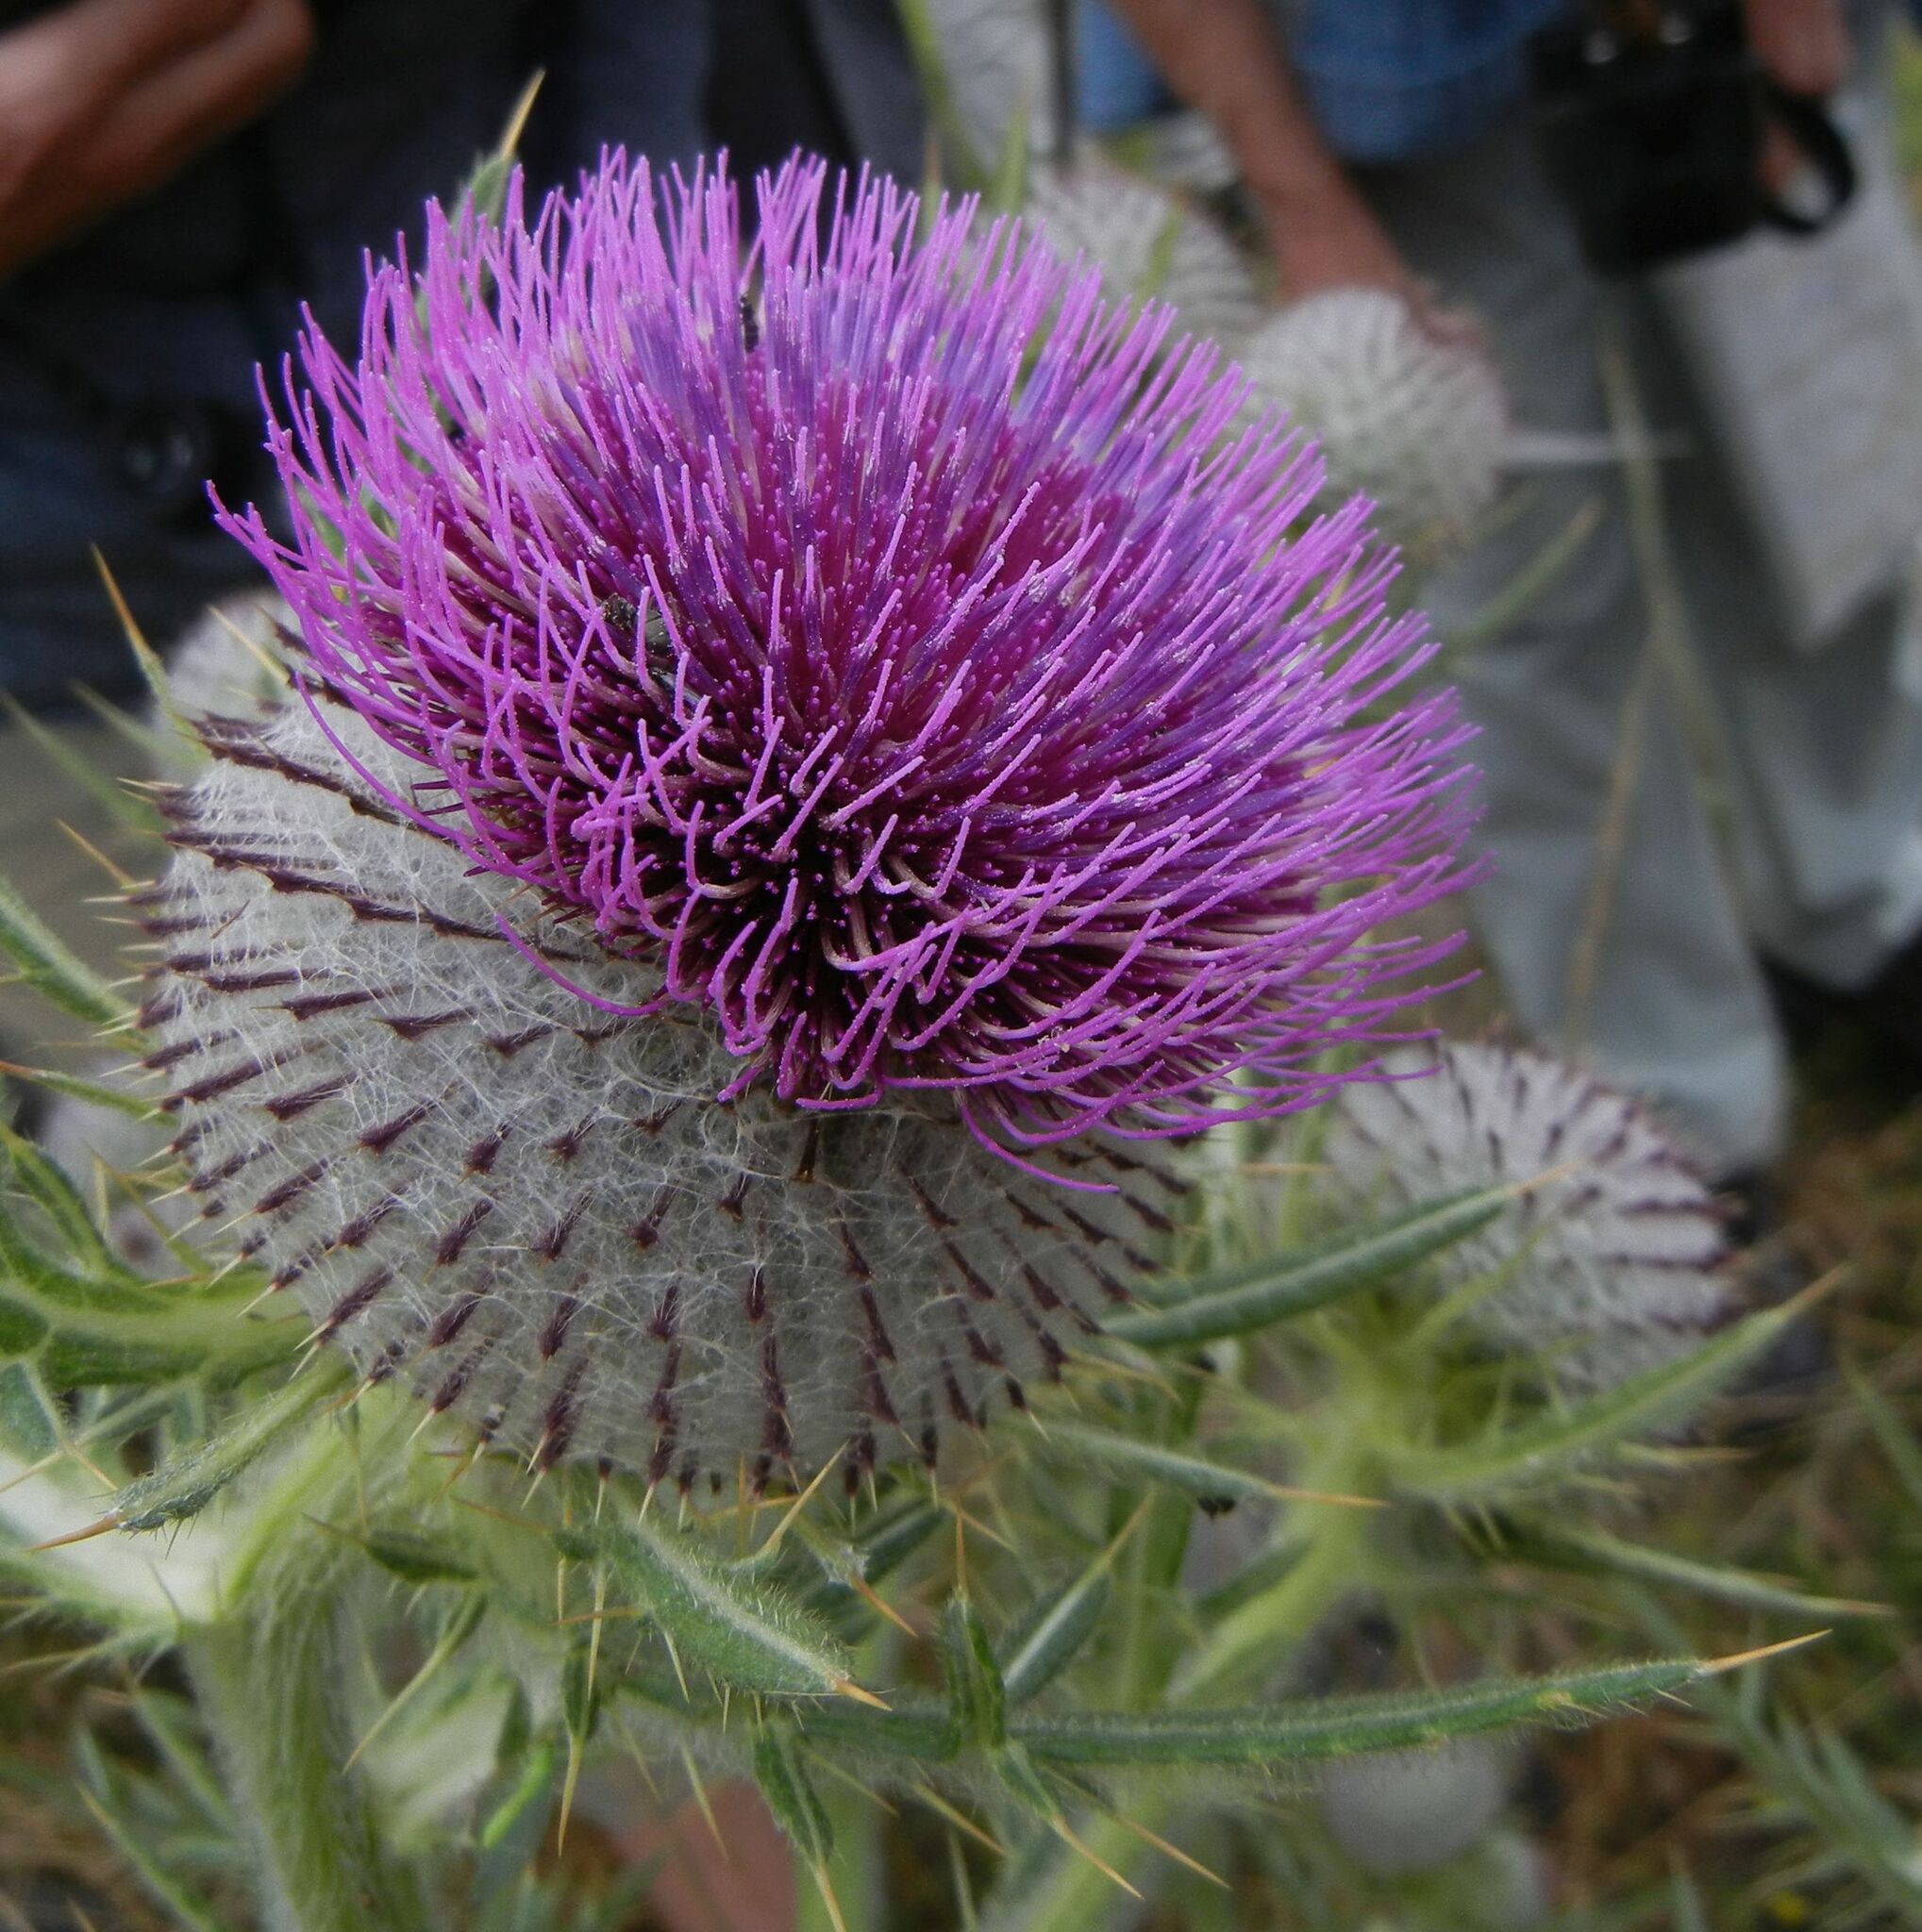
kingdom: Plantae
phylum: Tracheophyta
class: Magnoliopsida
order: Asterales
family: Asteraceae
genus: Lophiolepis
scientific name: Lophiolepis eriophora
